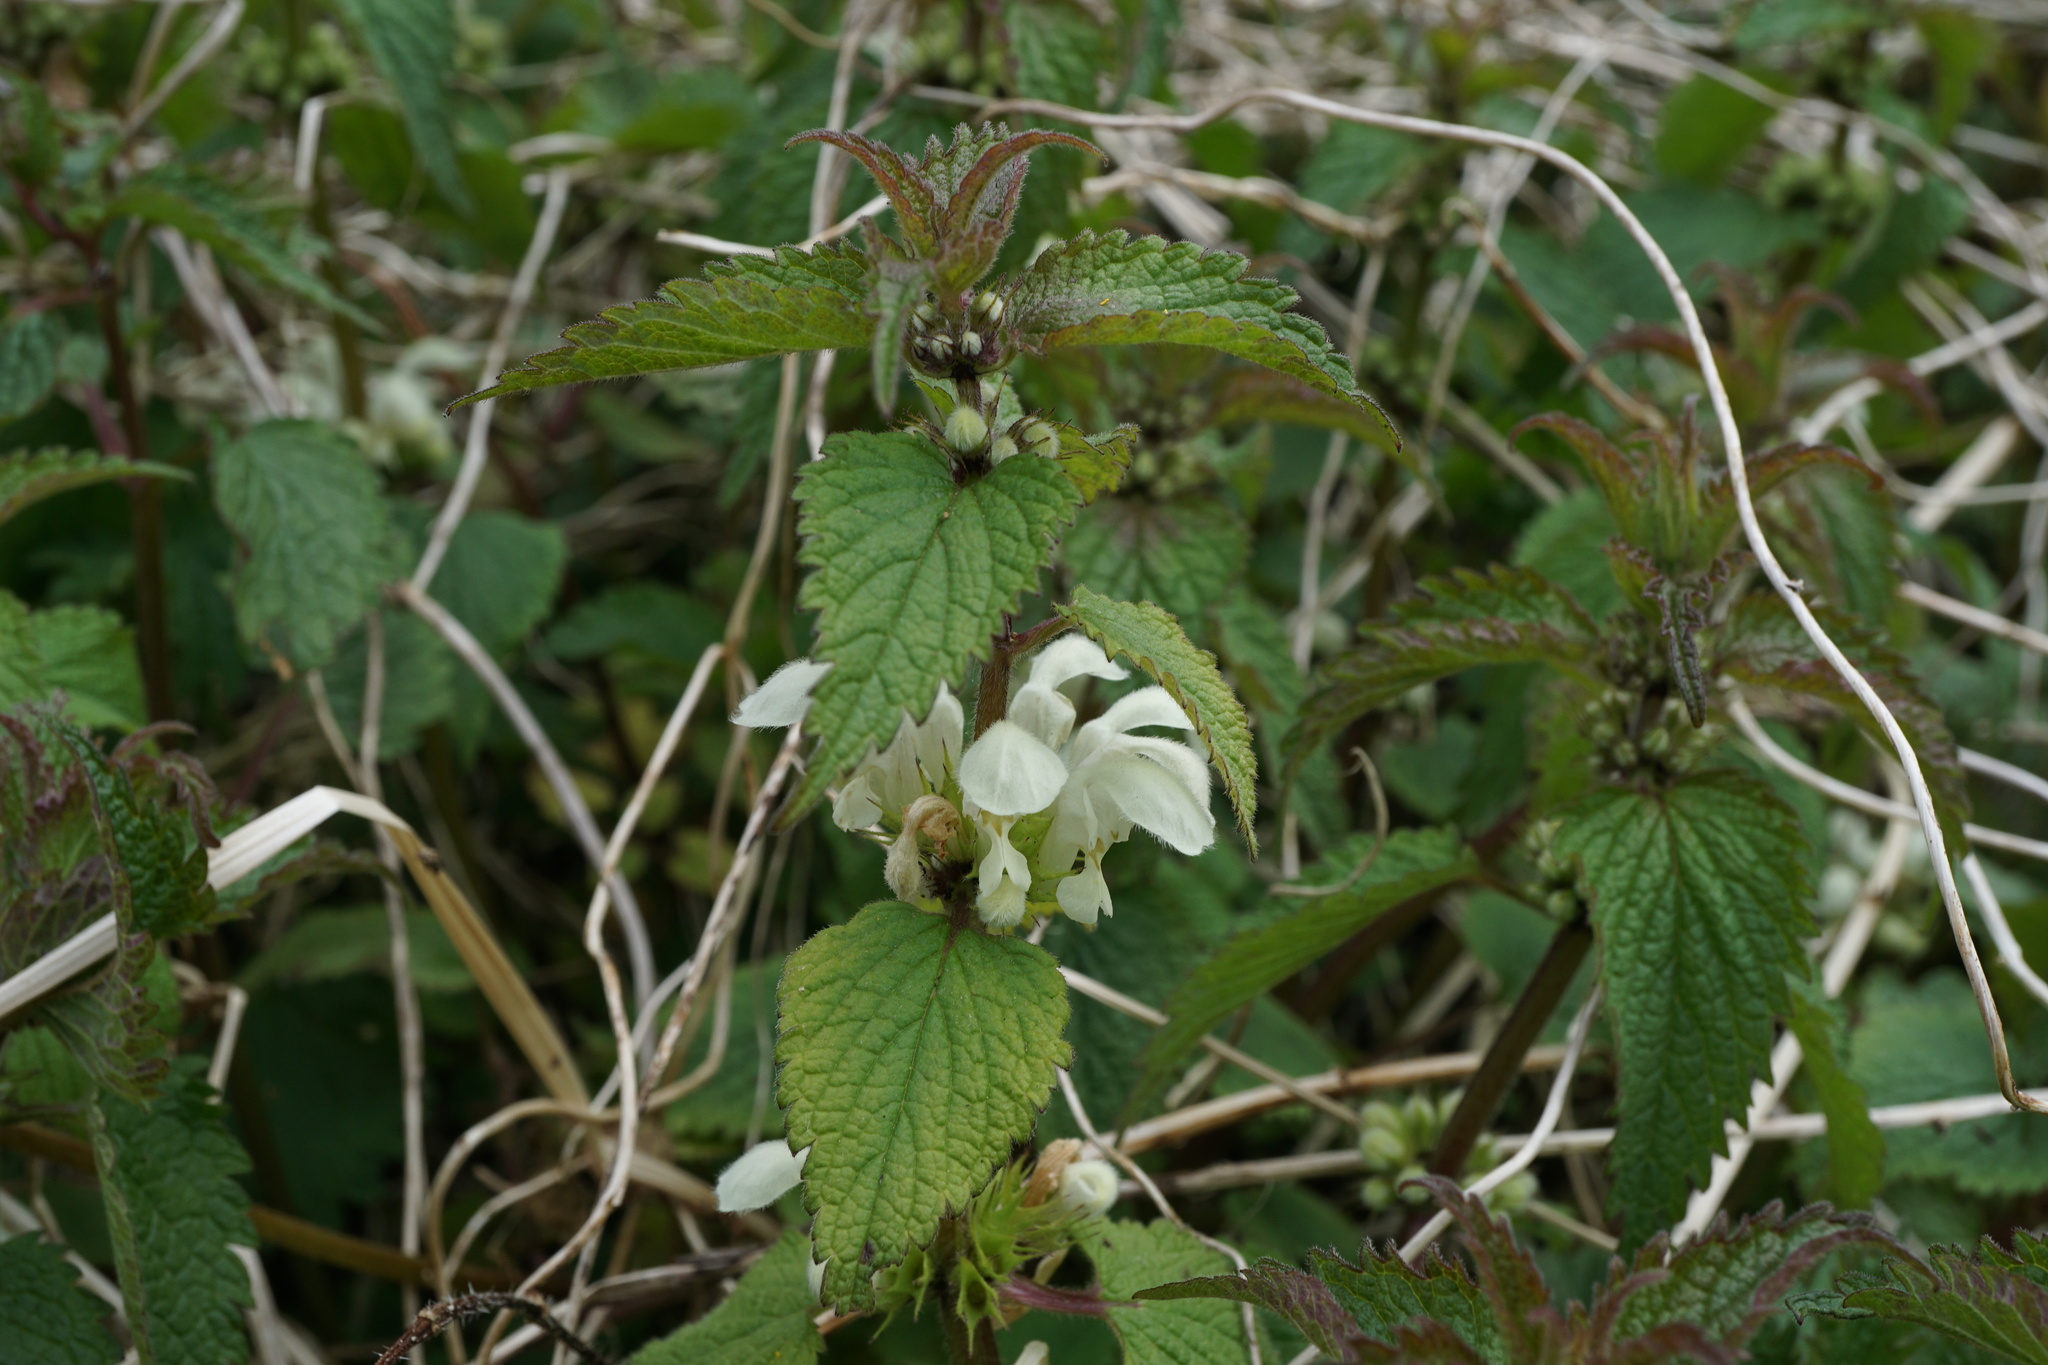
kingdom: Plantae
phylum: Tracheophyta
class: Magnoliopsida
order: Lamiales
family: Lamiaceae
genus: Lamium
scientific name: Lamium album
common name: White dead-nettle
